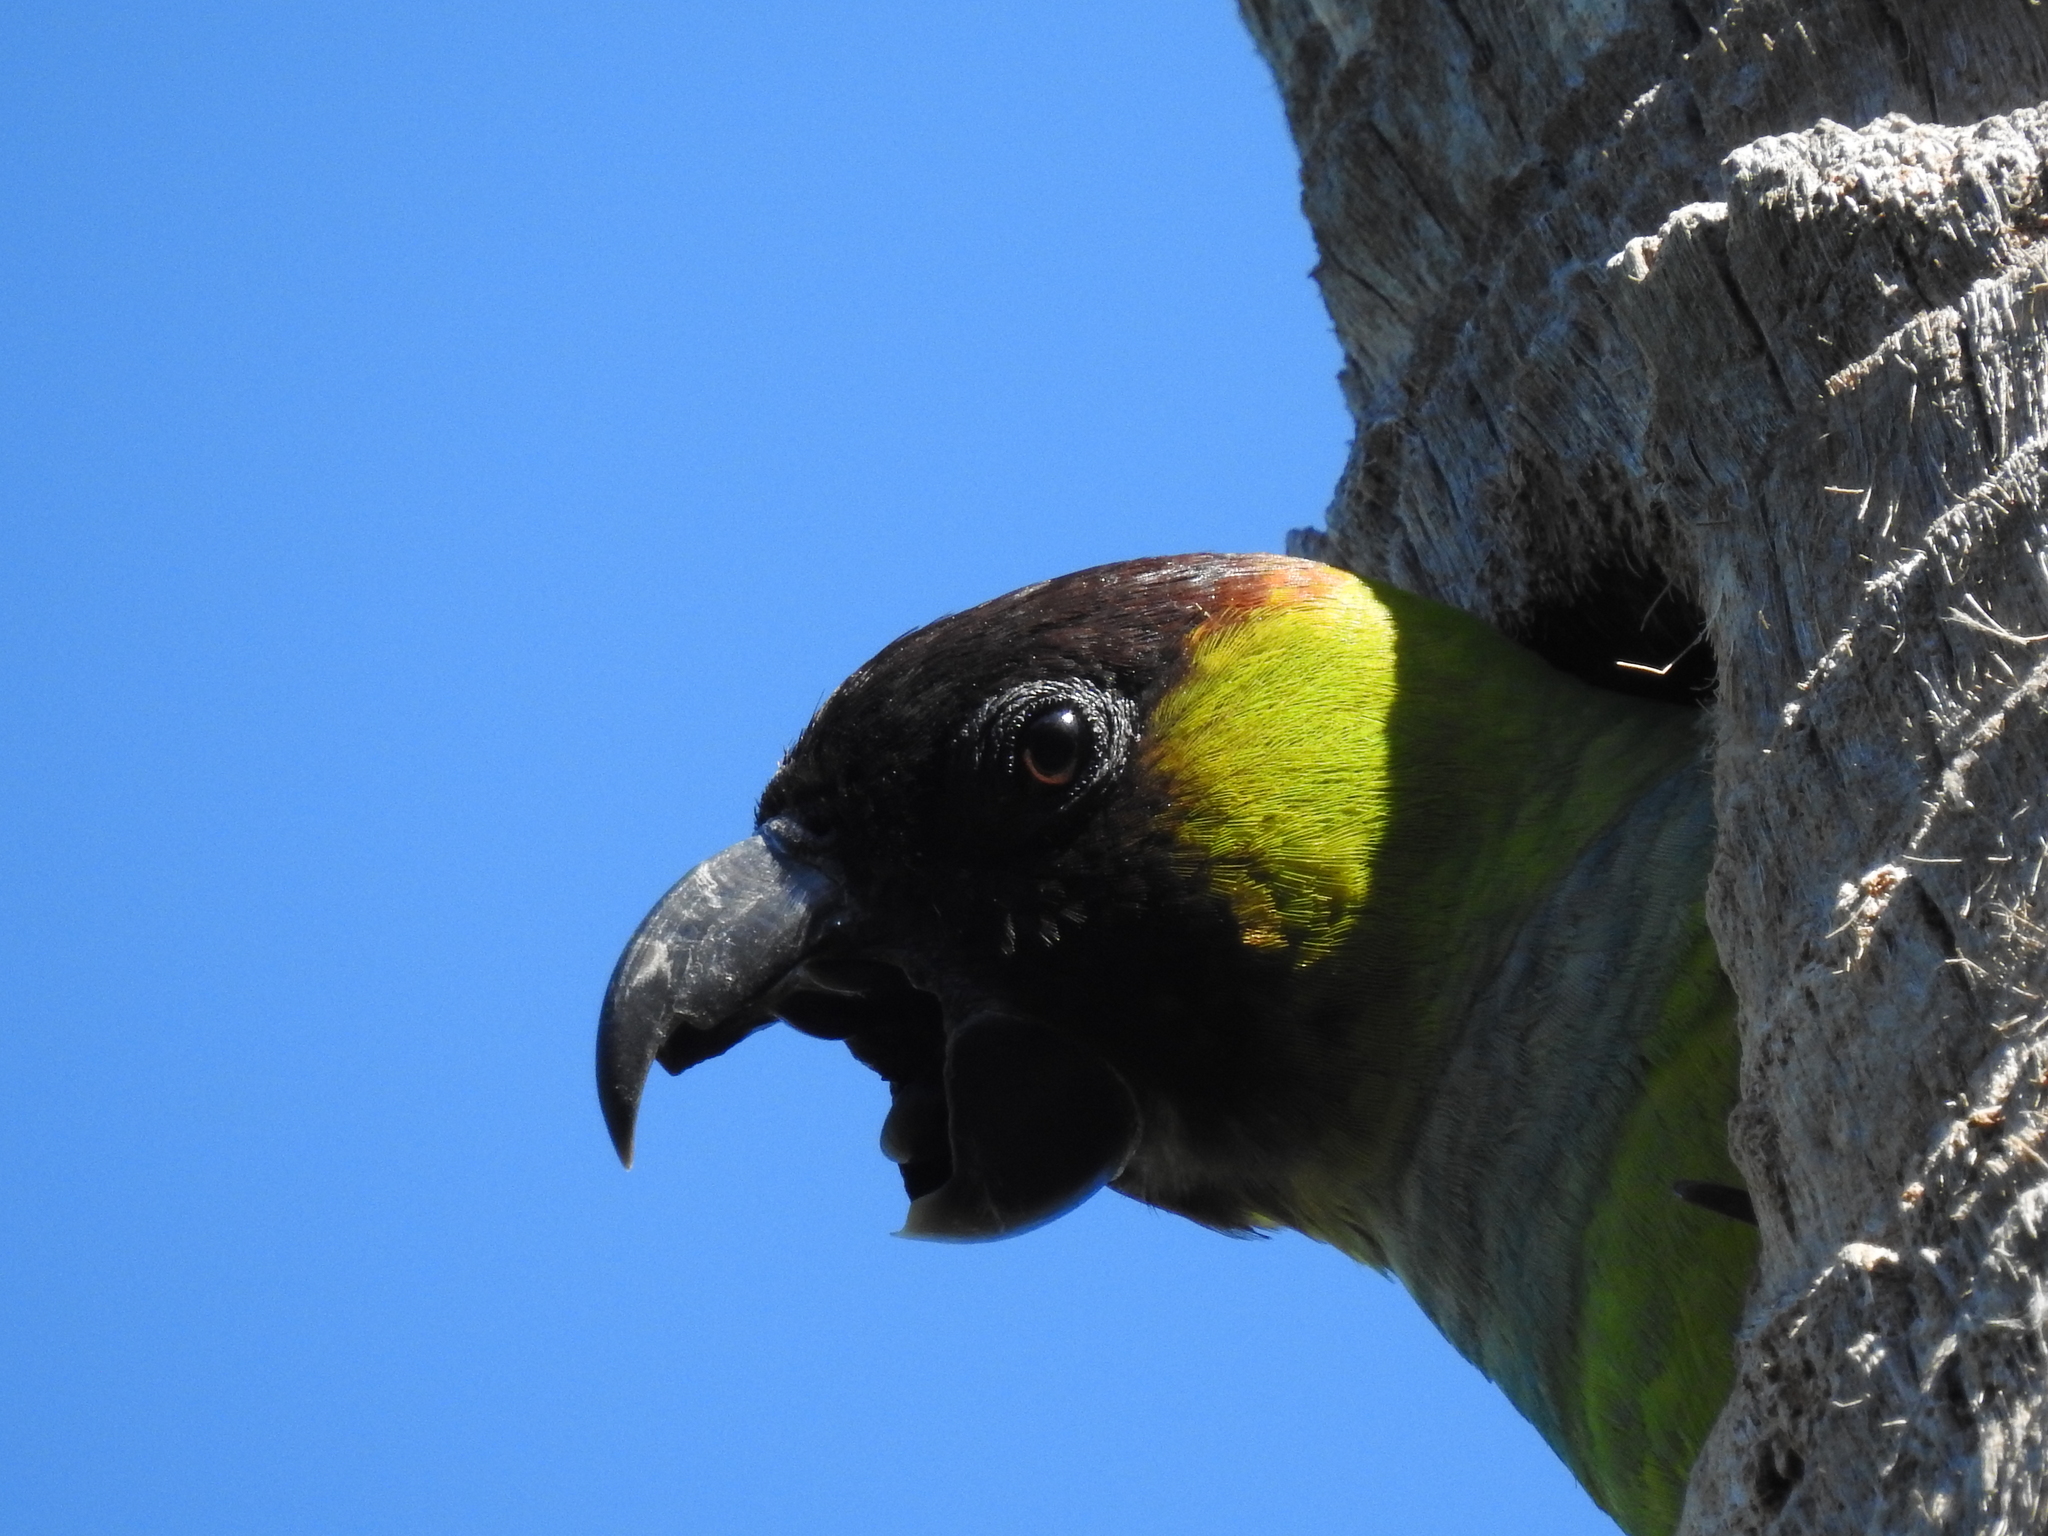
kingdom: Animalia
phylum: Chordata
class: Aves
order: Psittaciformes
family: Psittacidae
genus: Nandayus
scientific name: Nandayus nenday
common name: Nanday parakeet
